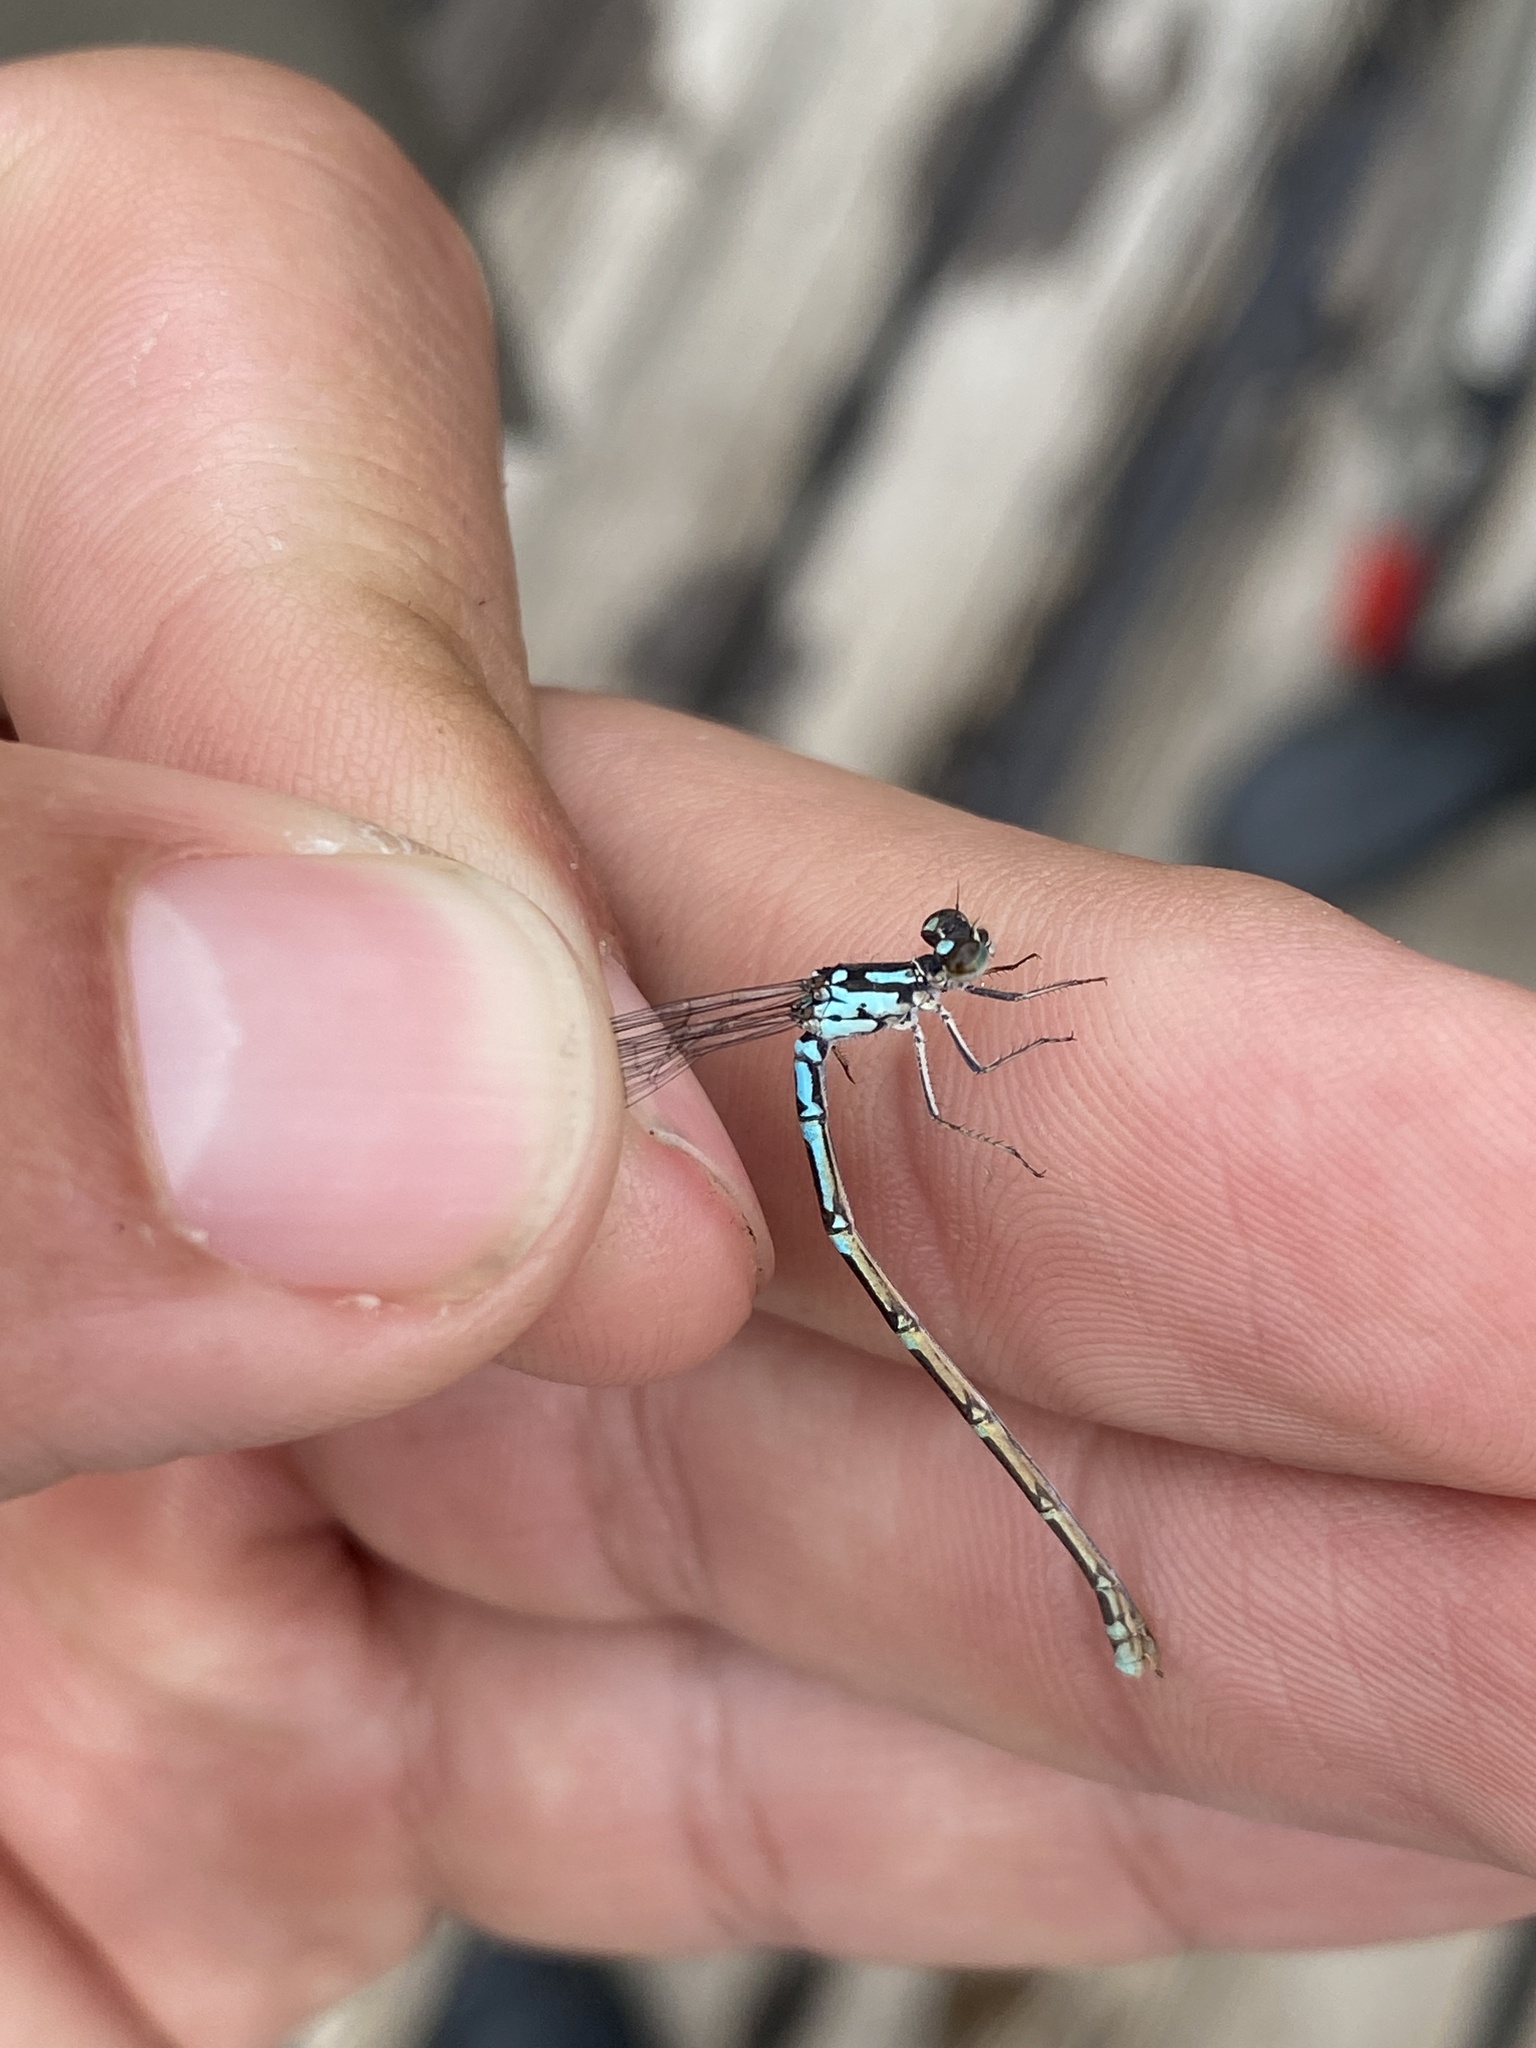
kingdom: Animalia
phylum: Arthropoda
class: Insecta
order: Odonata
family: Coenagrionidae
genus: Coenagrion
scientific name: Coenagrion interrogatum
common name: Subarctic bluet
